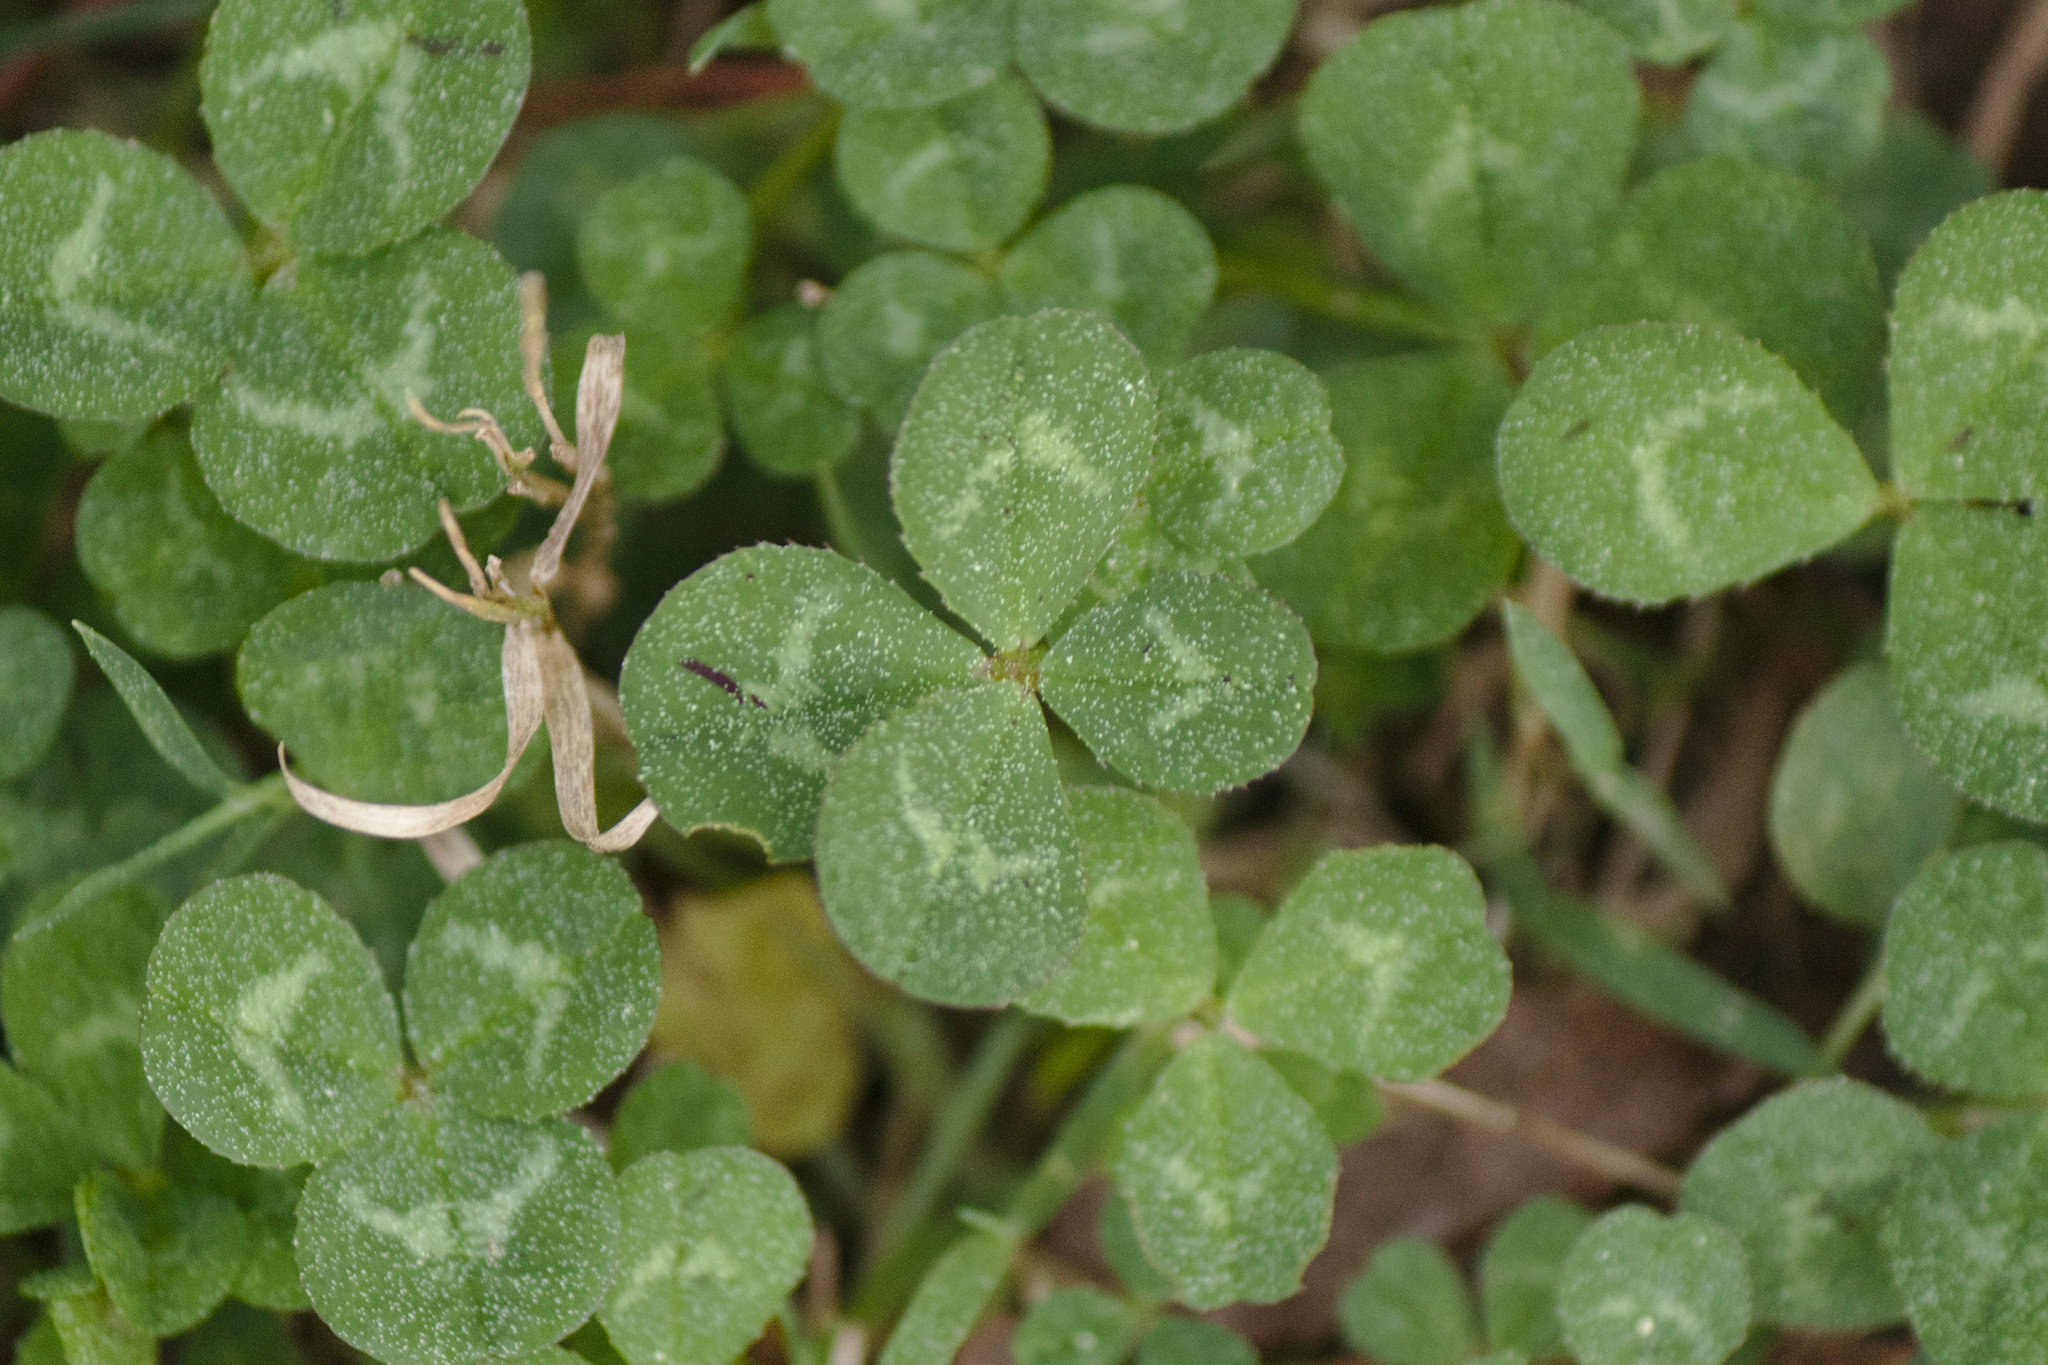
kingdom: Plantae
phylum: Tracheophyta
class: Magnoliopsida
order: Fabales
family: Fabaceae
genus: Trifolium
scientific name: Trifolium repens
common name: White clover
